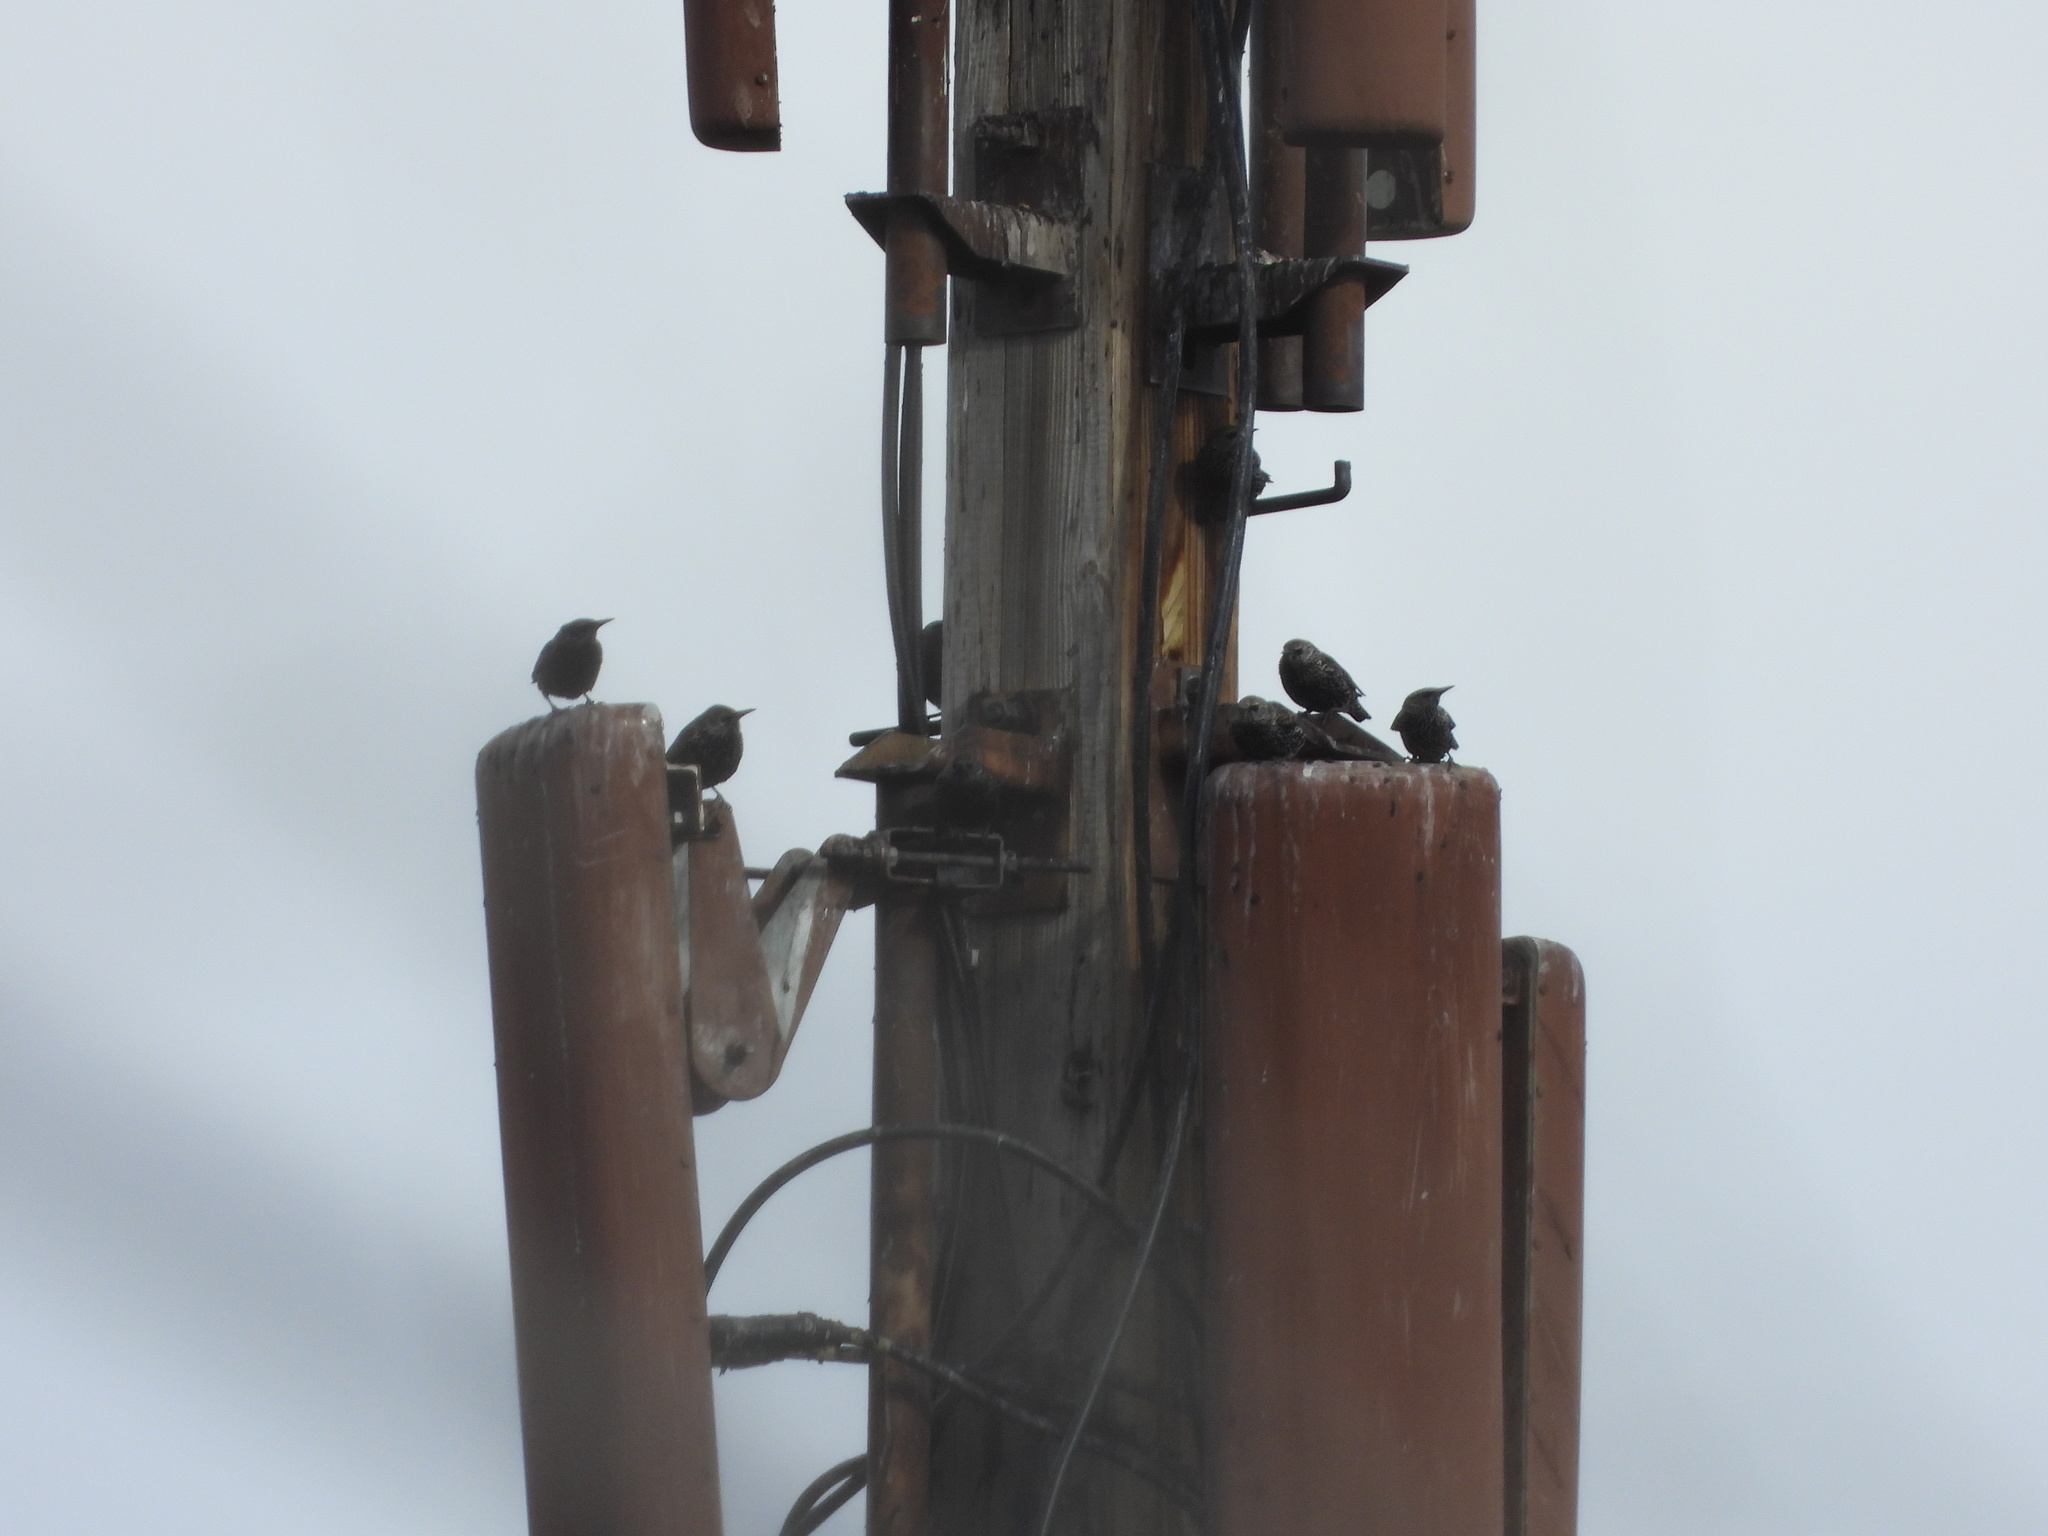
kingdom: Animalia
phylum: Chordata
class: Aves
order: Passeriformes
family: Sturnidae
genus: Sturnus
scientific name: Sturnus vulgaris
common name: Common starling
